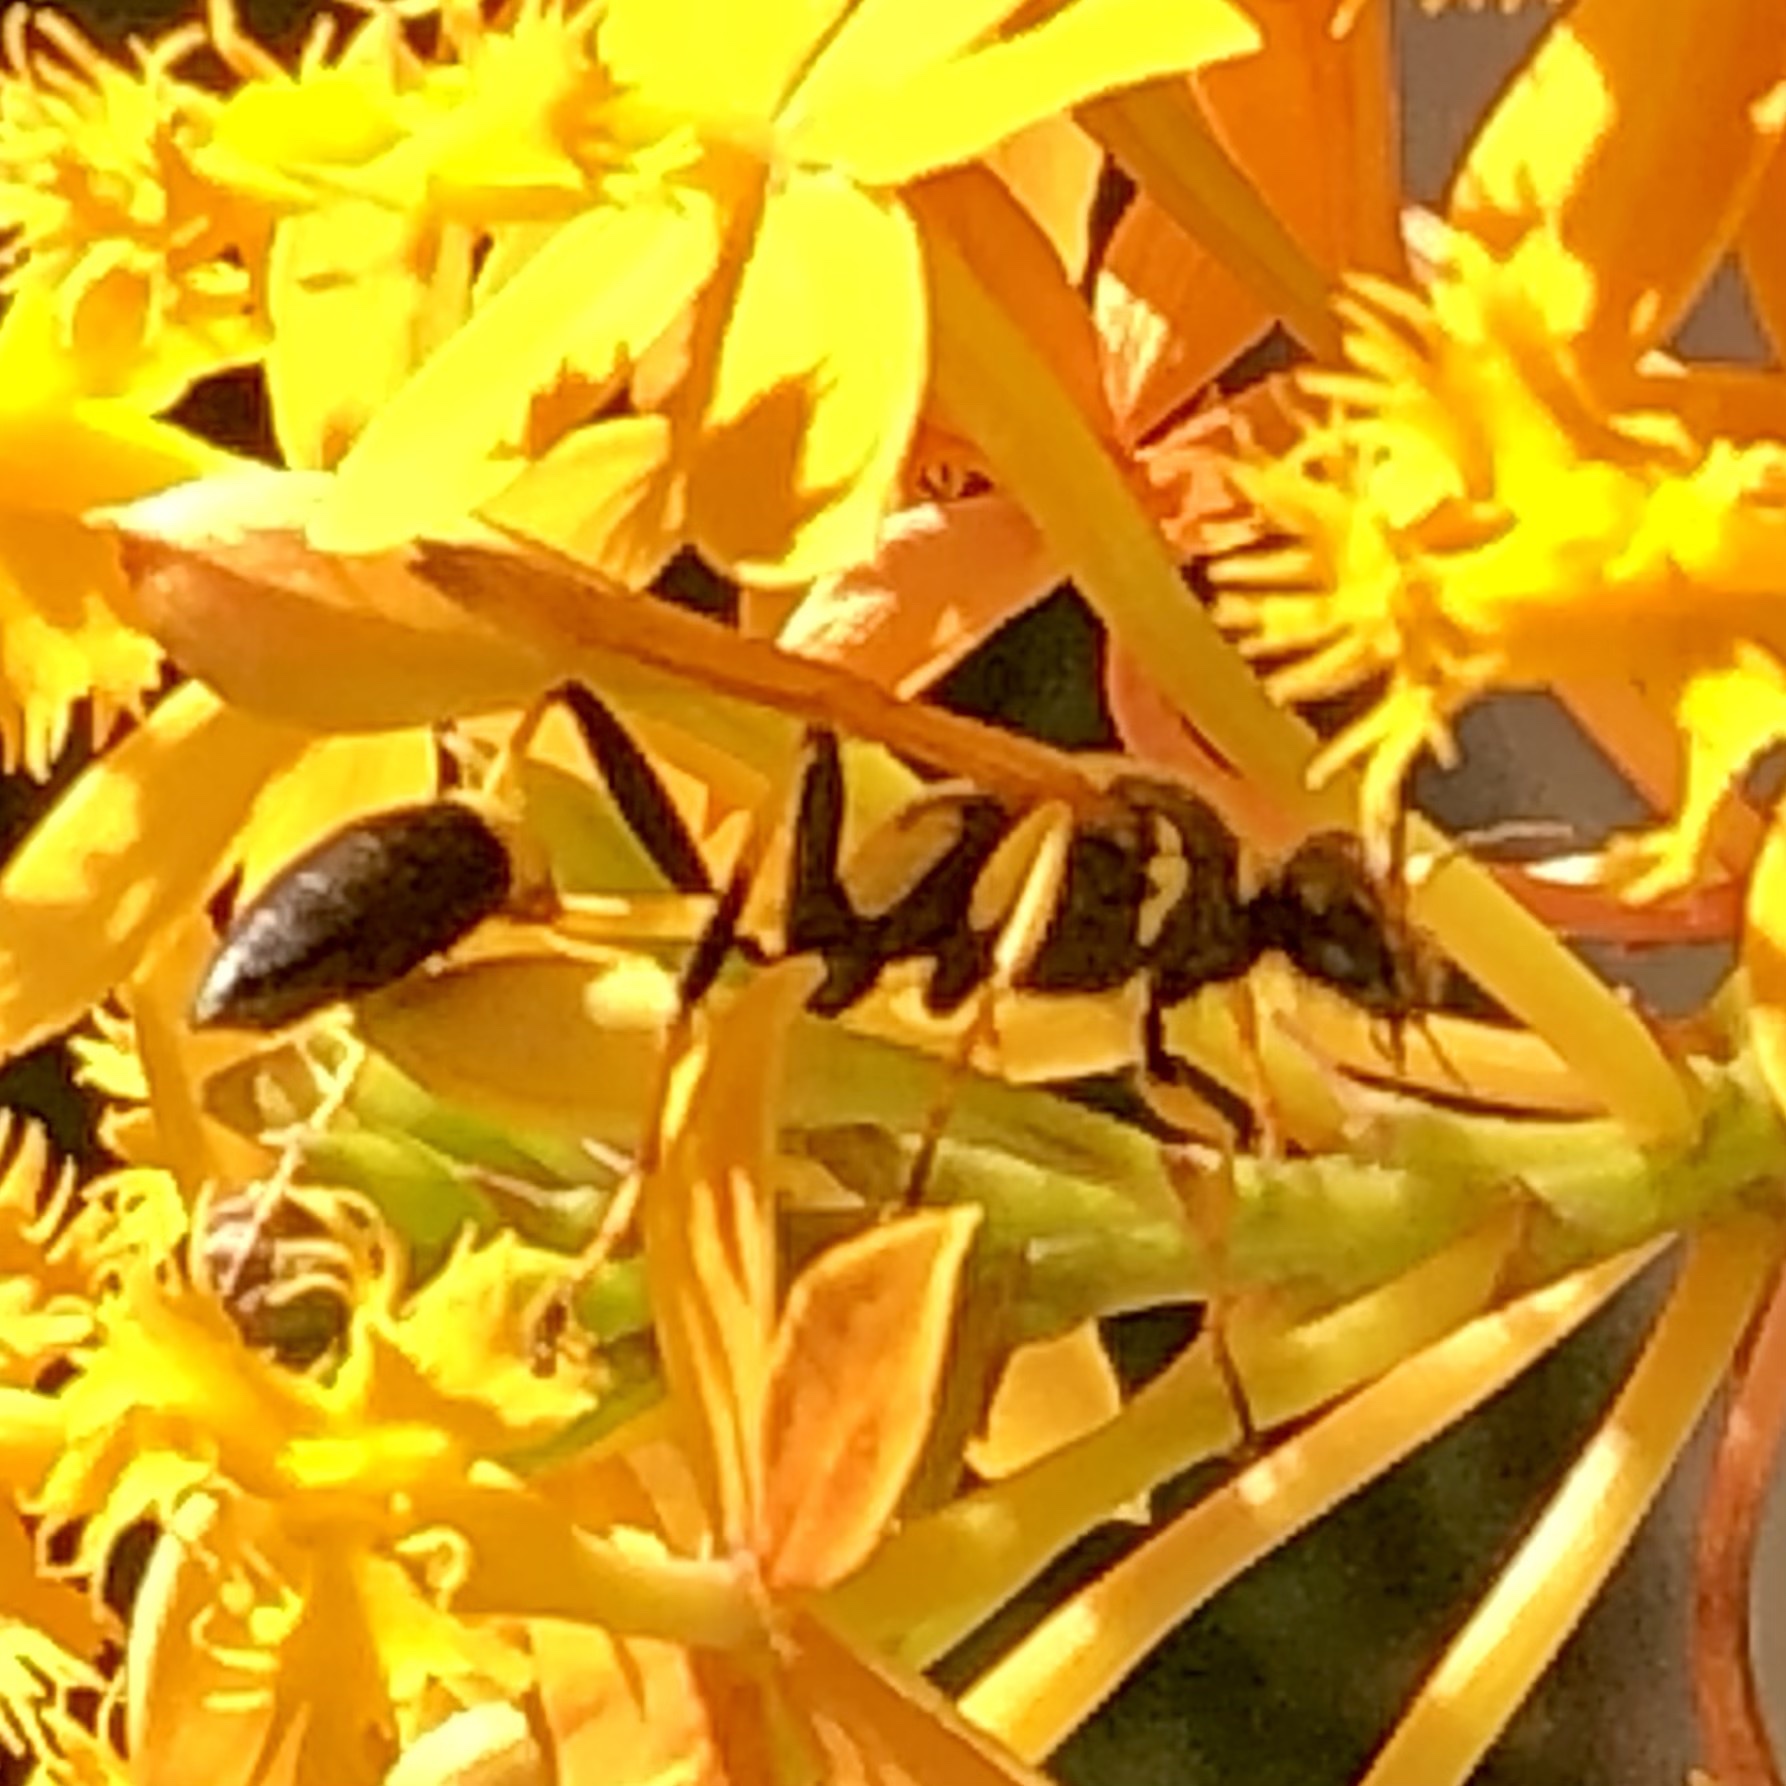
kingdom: Animalia
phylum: Arthropoda
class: Insecta
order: Hymenoptera
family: Sphecidae
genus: Sceliphron
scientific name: Sceliphron caementarium
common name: Mud dauber
